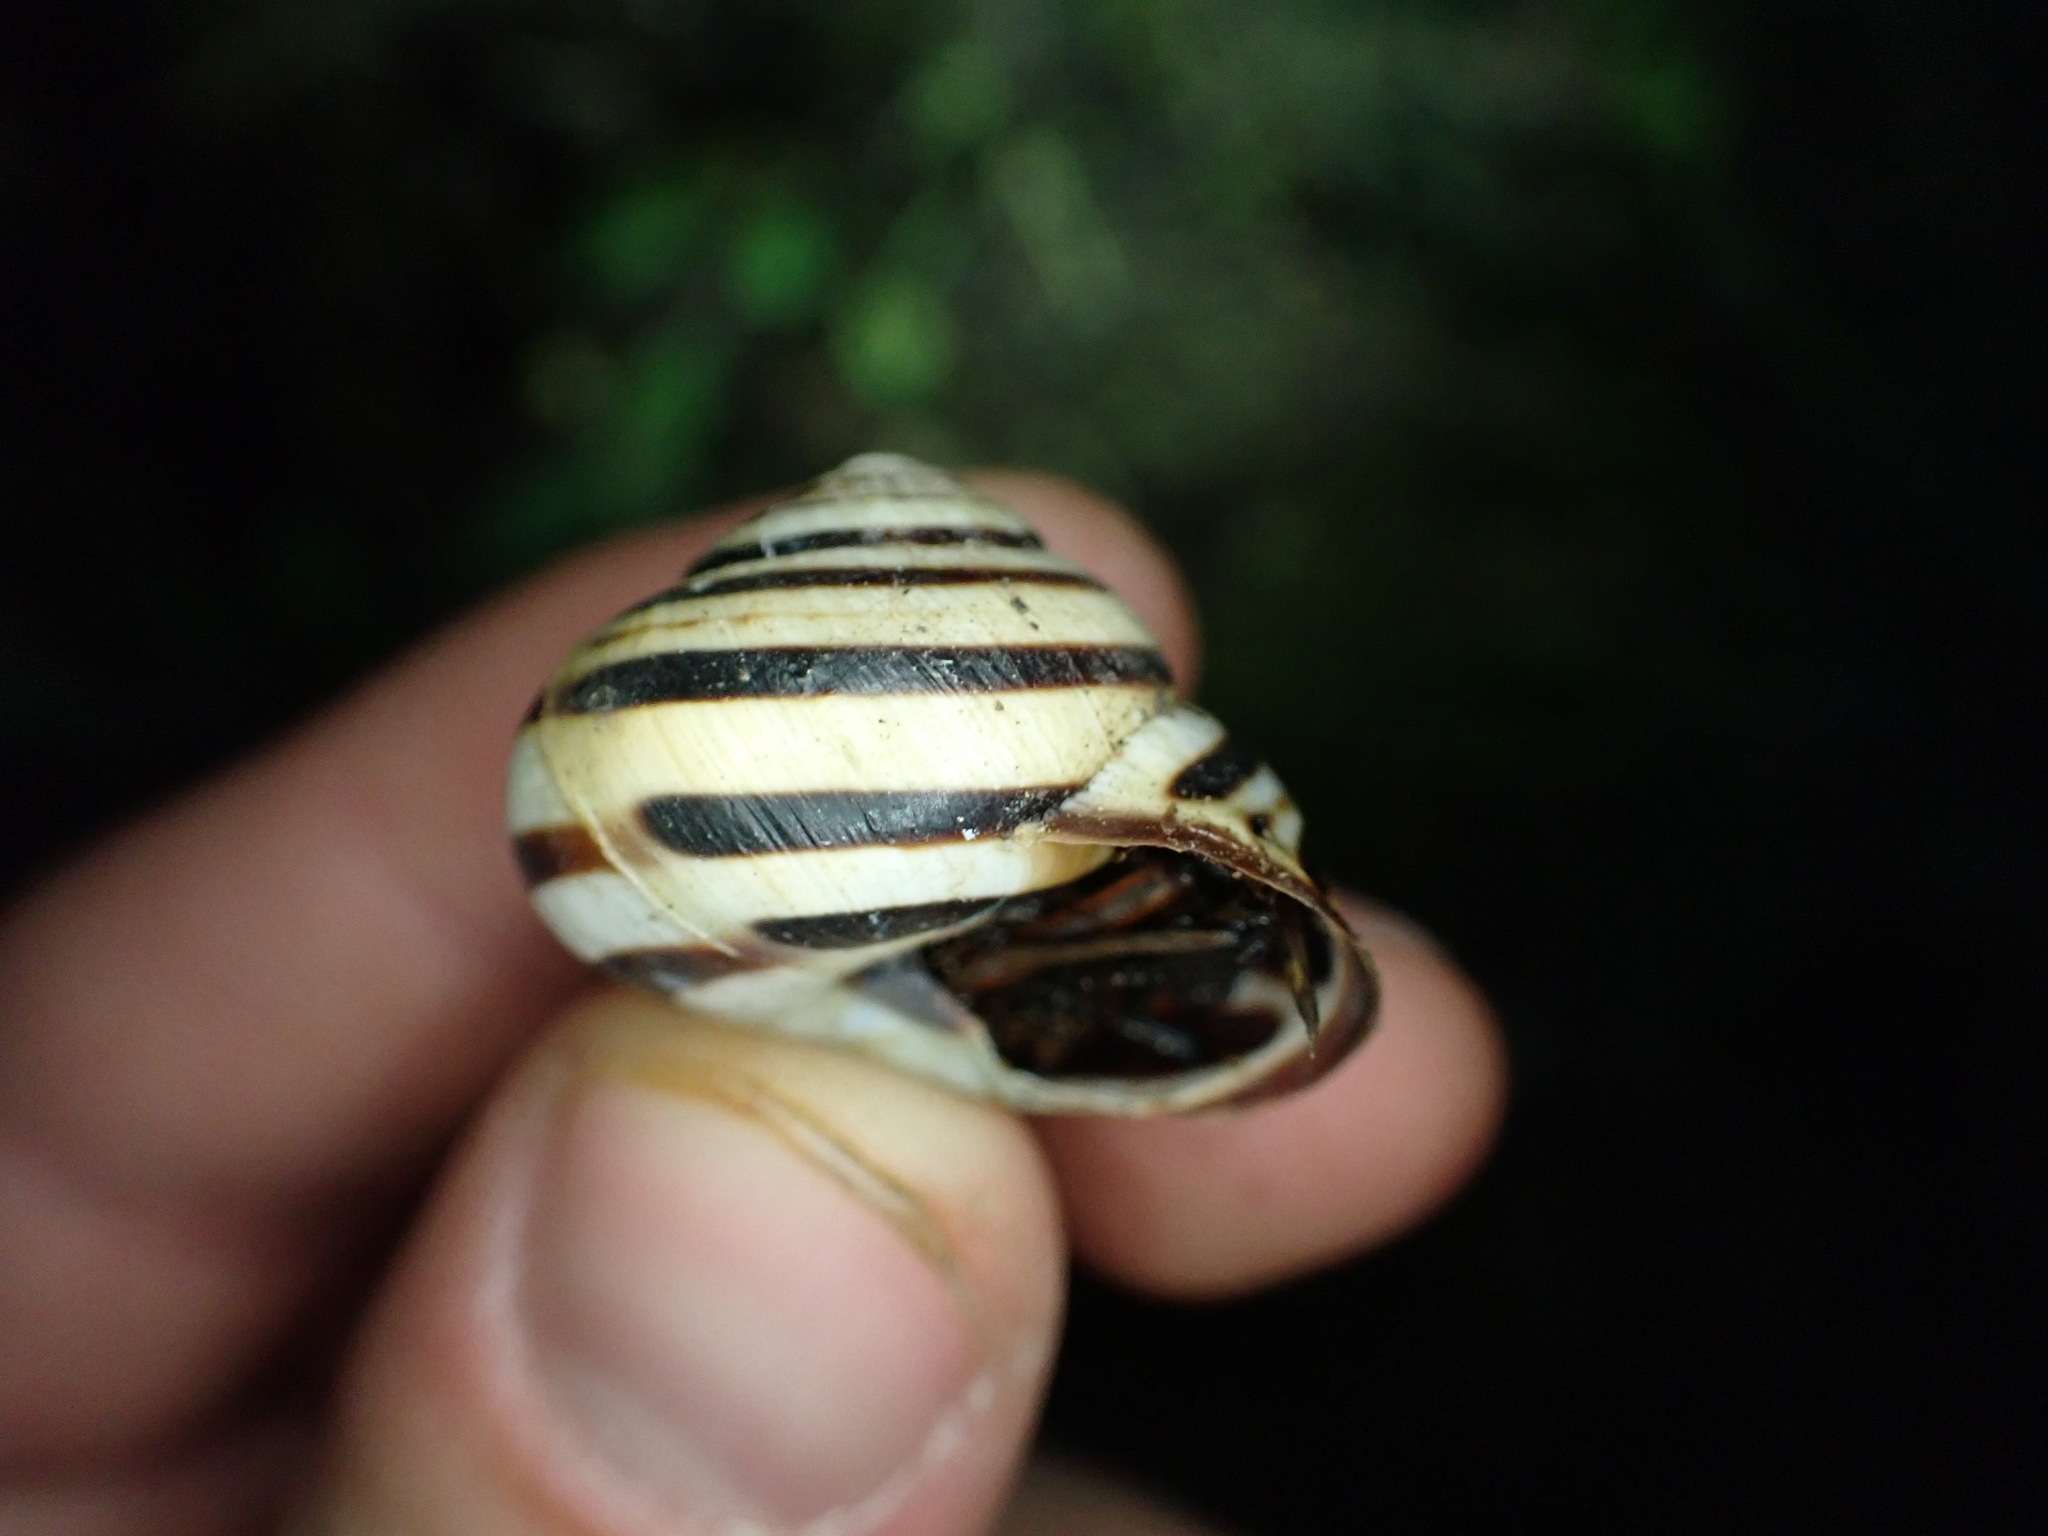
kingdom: Animalia
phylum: Mollusca
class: Gastropoda
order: Stylommatophora
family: Helicidae
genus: Cepaea
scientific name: Cepaea nemoralis
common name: Grovesnail
